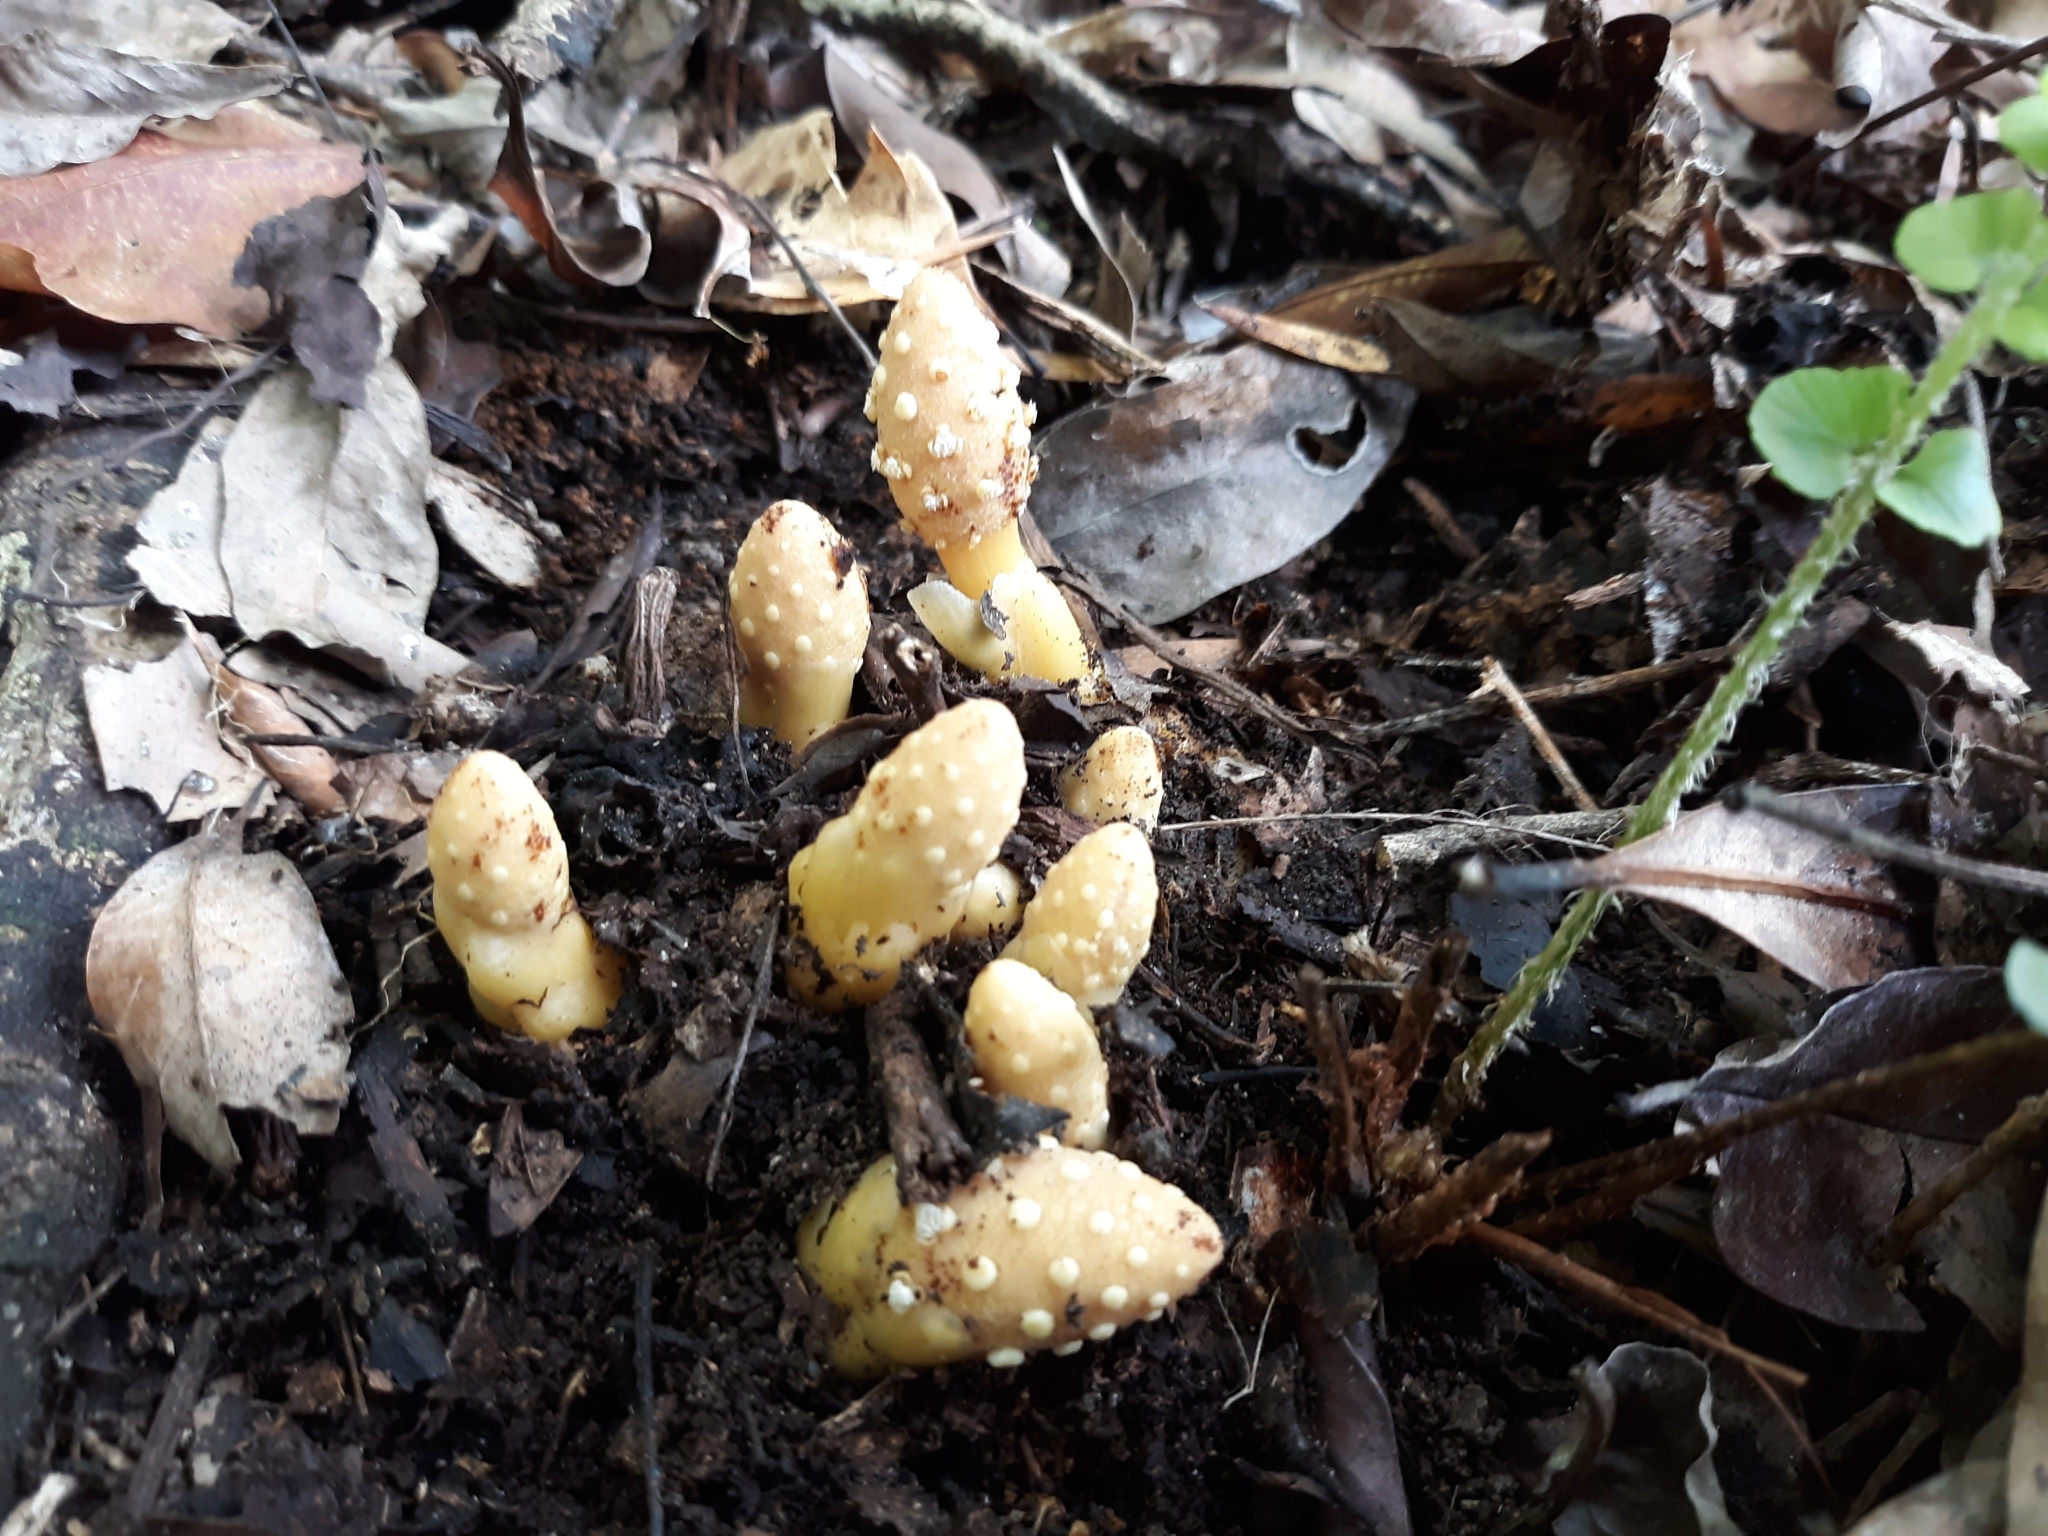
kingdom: Plantae
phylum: Tracheophyta
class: Magnoliopsida
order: Santalales
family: Balanophoraceae
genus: Balanophora
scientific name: Balanophora tobiracola
